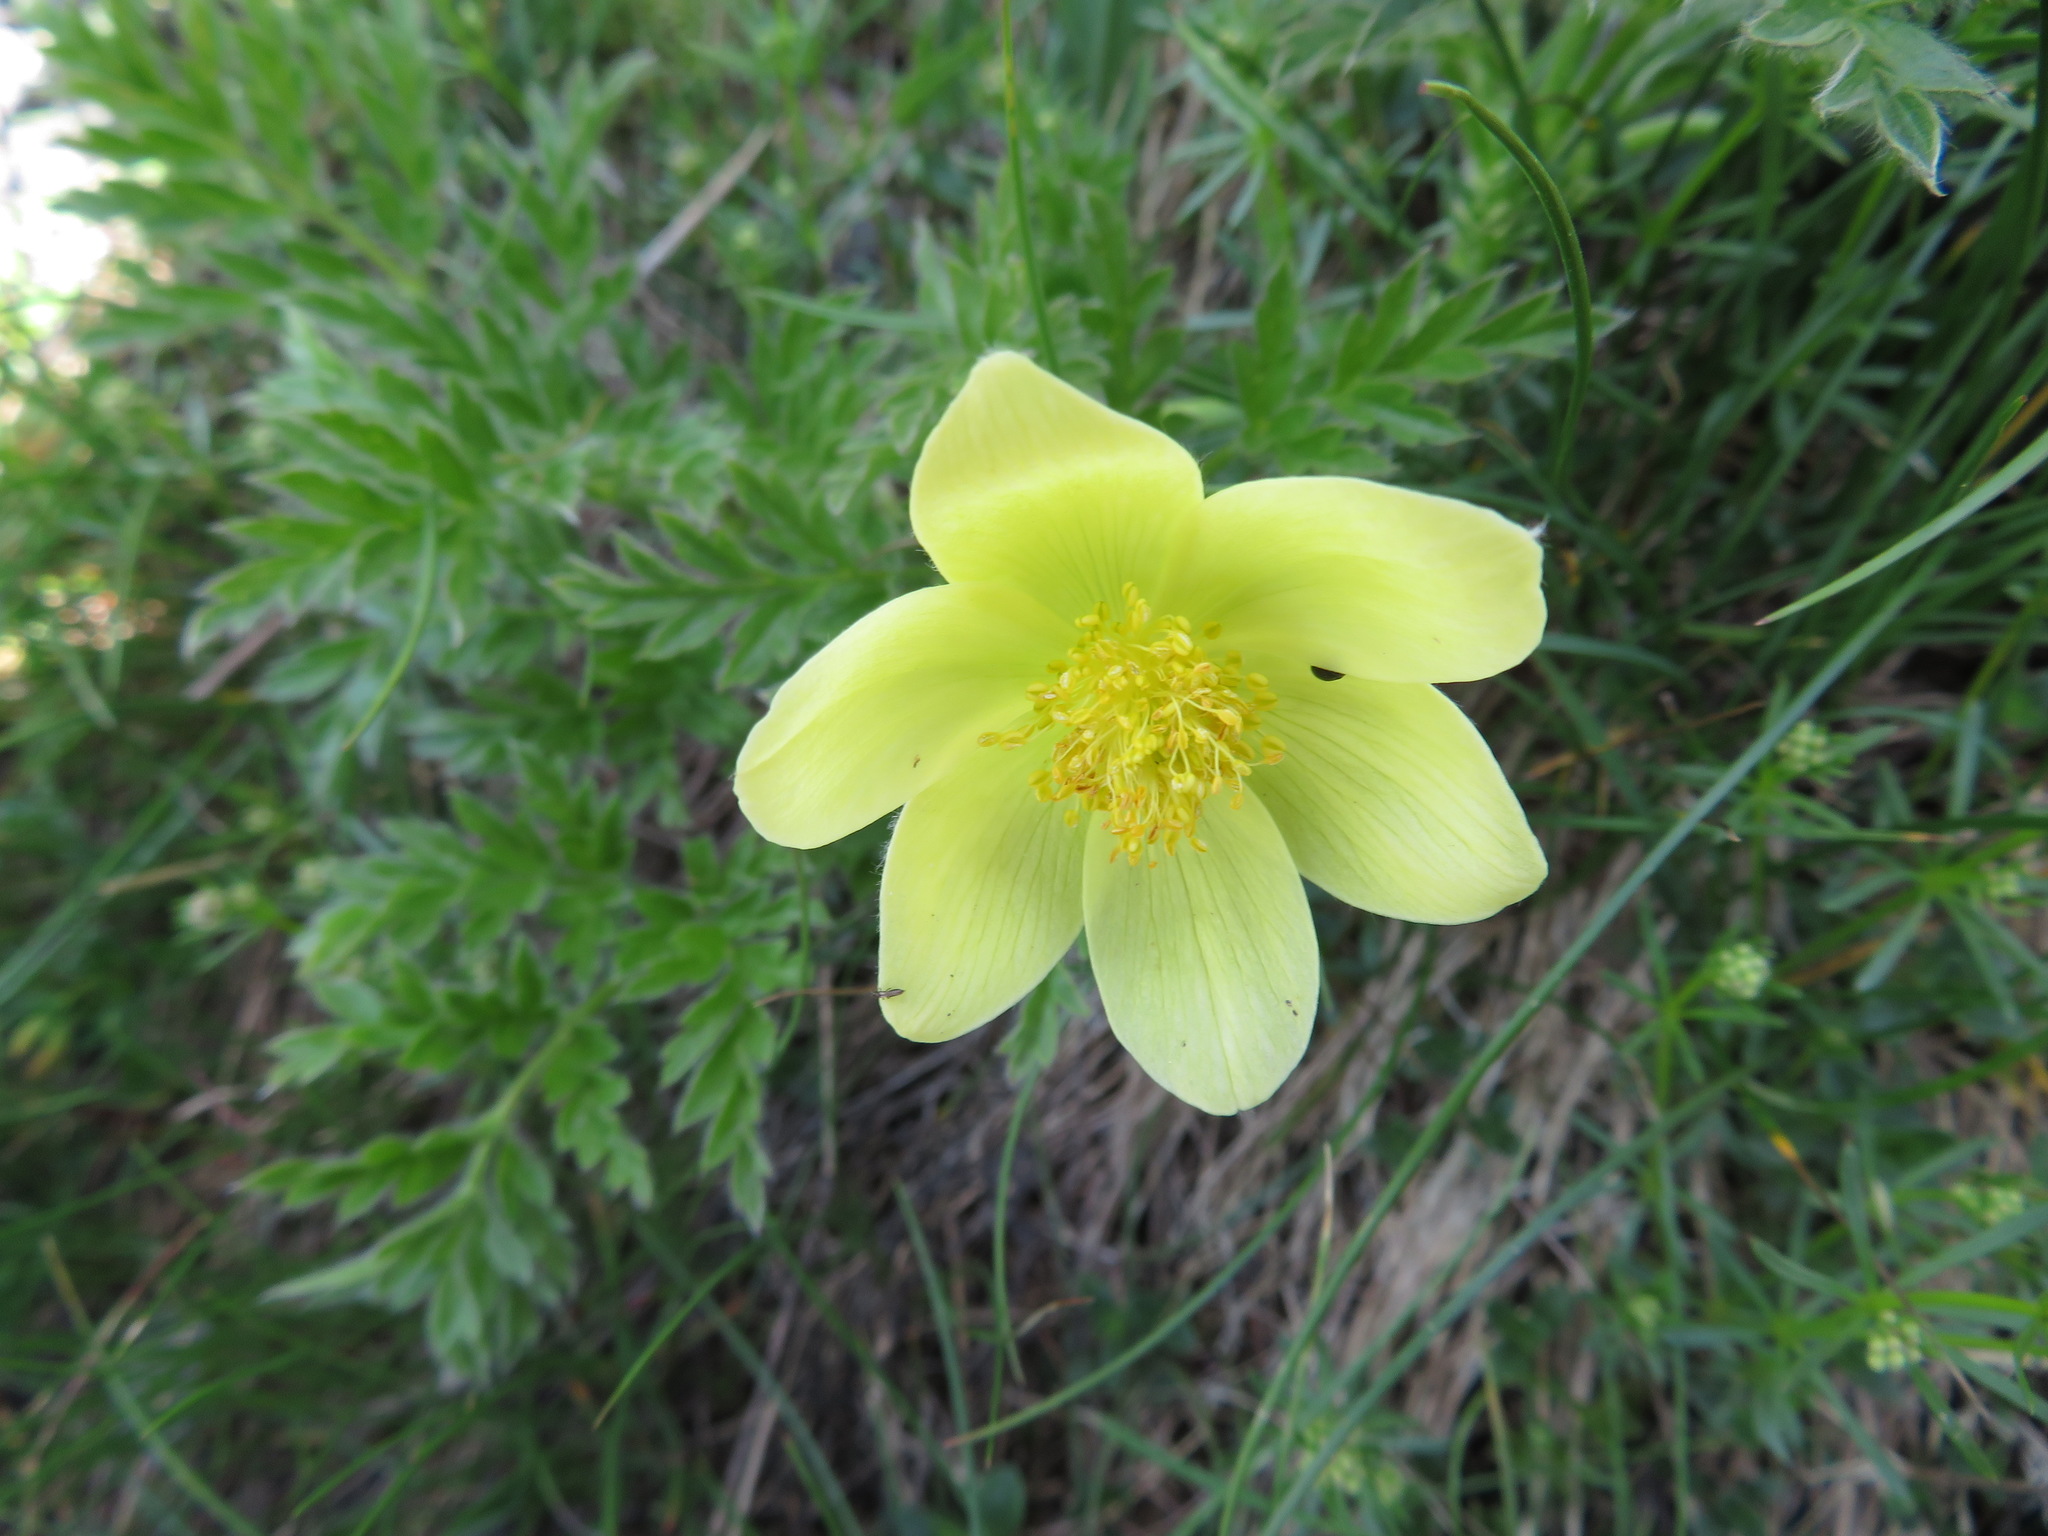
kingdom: Plantae
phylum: Tracheophyta
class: Magnoliopsida
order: Ranunculales
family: Ranunculaceae
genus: Pulsatilla
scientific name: Pulsatilla alpina
